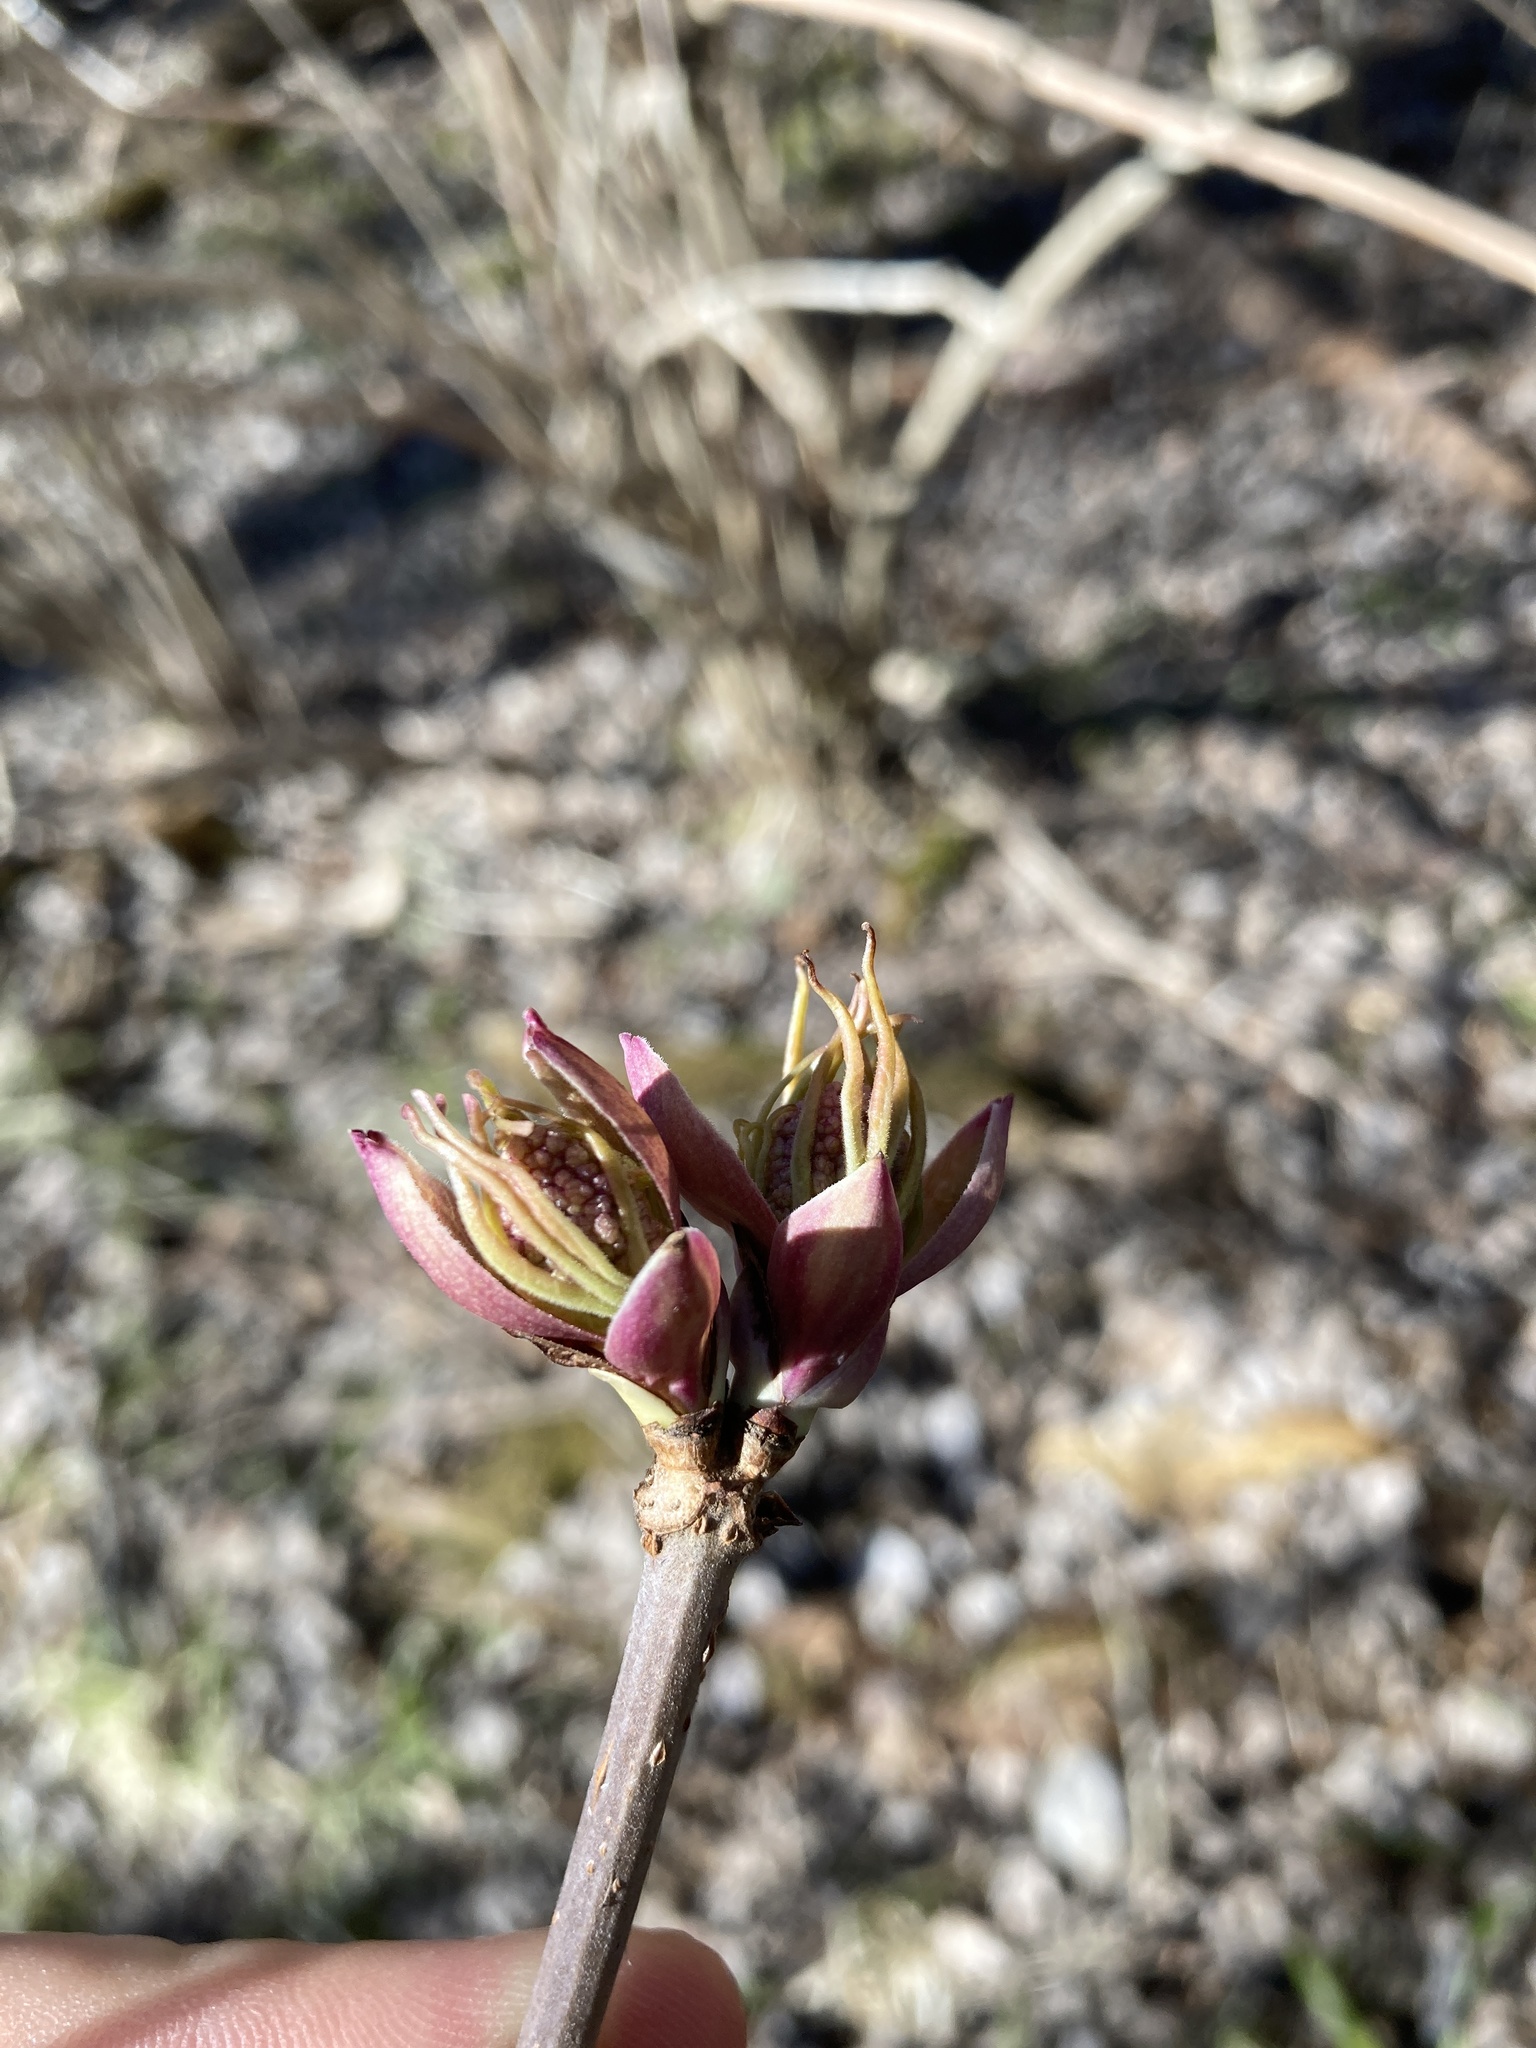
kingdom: Plantae
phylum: Tracheophyta
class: Magnoliopsida
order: Dipsacales
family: Viburnaceae
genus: Sambucus
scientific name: Sambucus racemosa
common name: Red-berried elder
